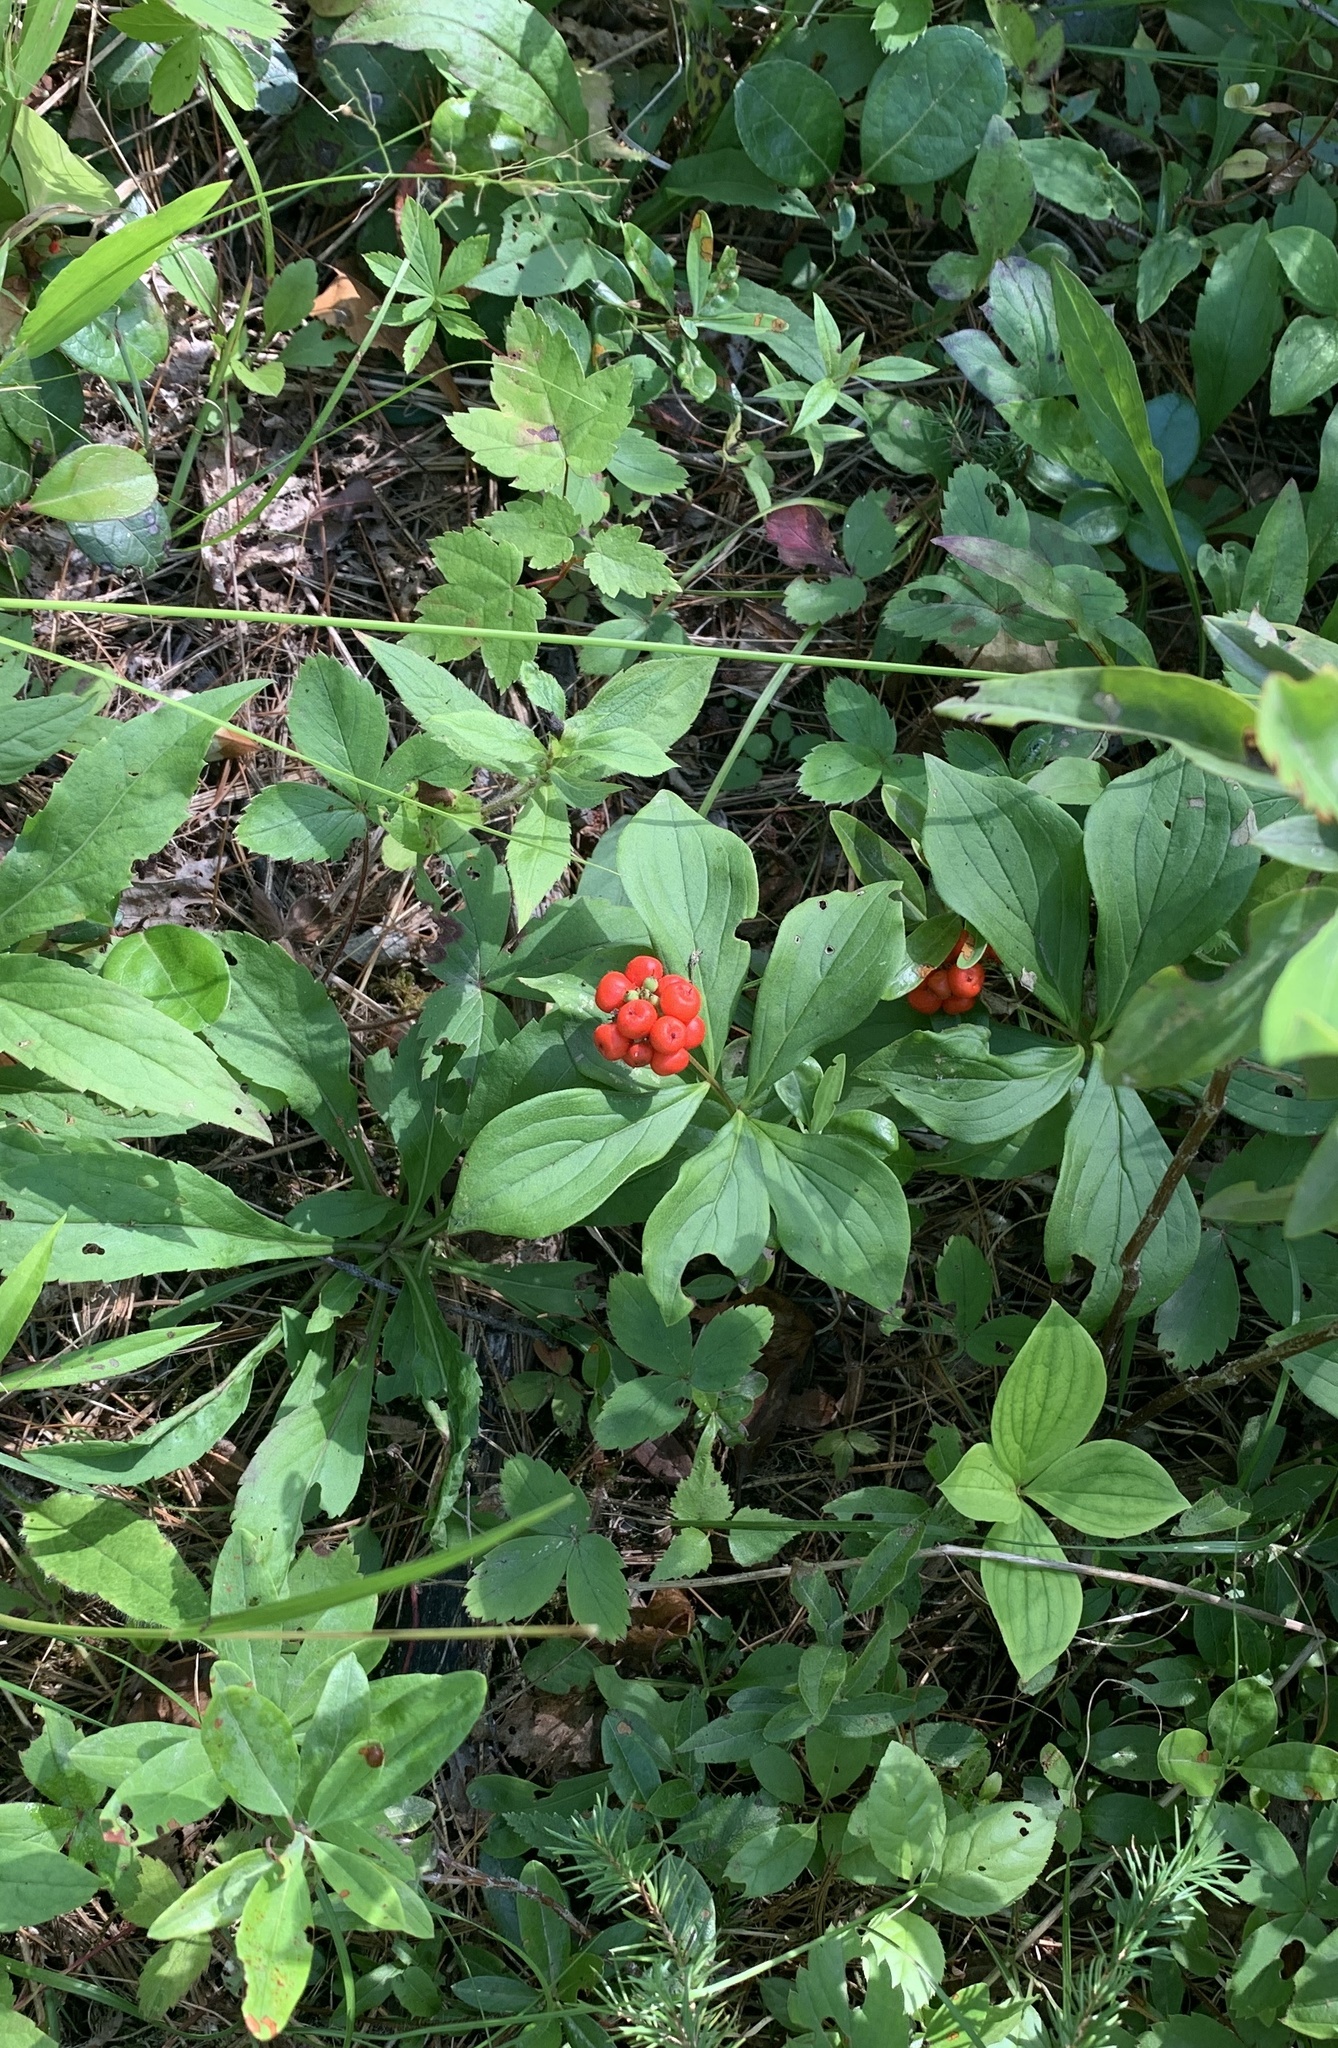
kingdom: Plantae
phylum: Tracheophyta
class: Magnoliopsida
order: Cornales
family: Cornaceae
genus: Cornus
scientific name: Cornus canadensis
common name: Creeping dogwood
